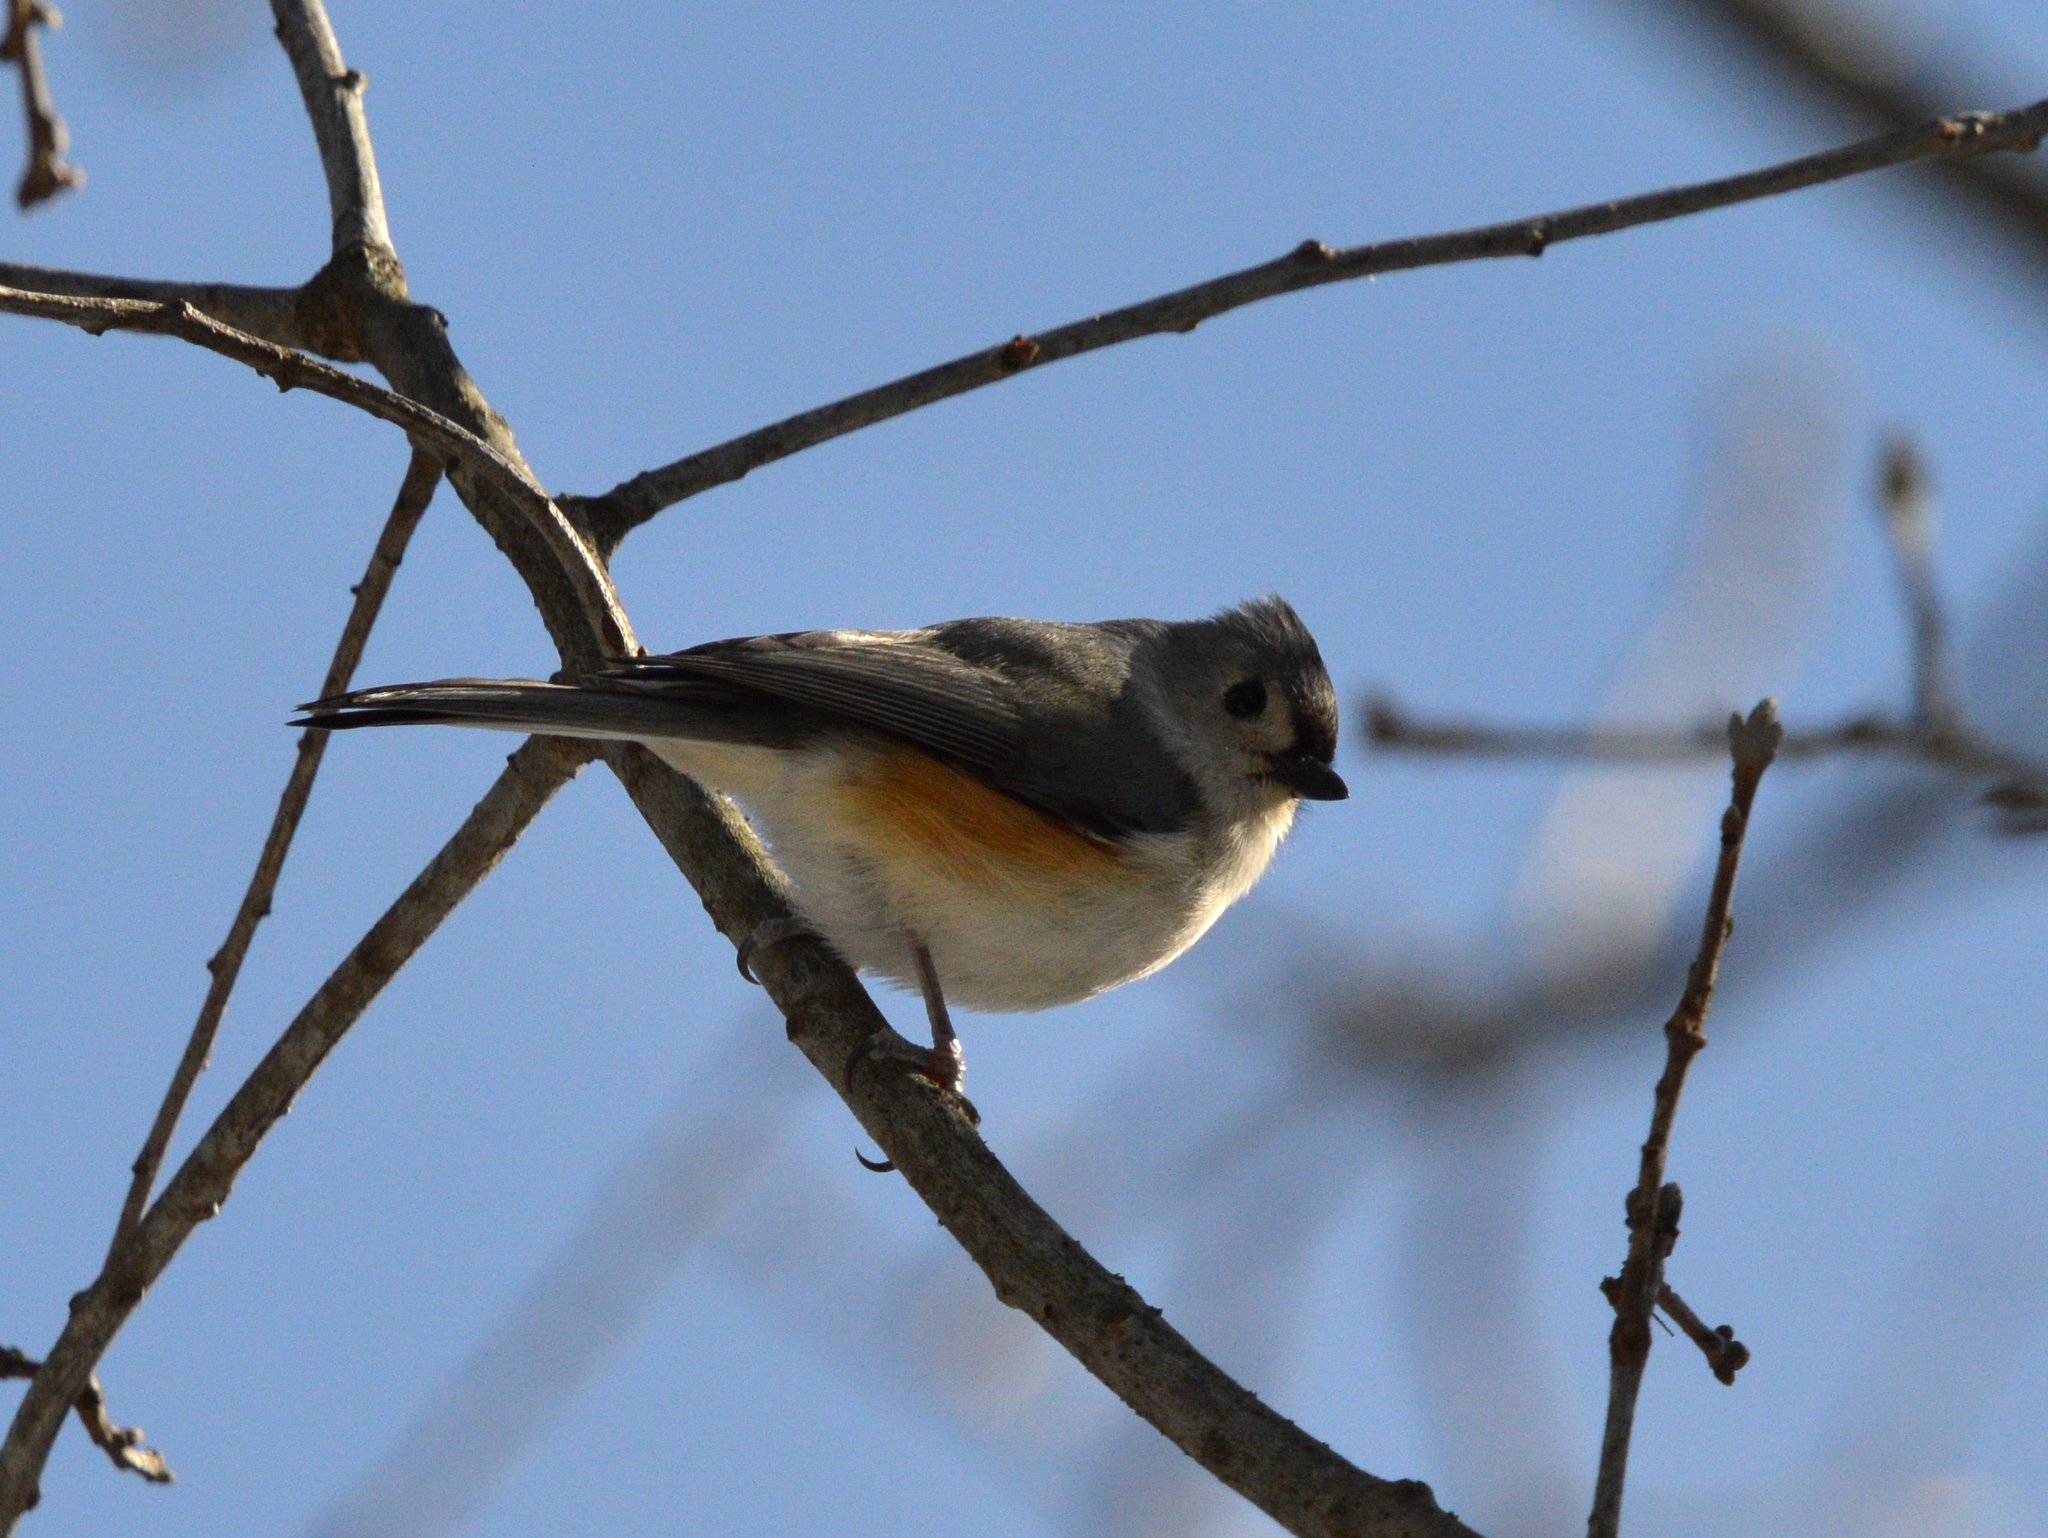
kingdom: Animalia
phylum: Chordata
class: Aves
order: Passeriformes
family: Paridae
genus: Baeolophus
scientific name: Baeolophus bicolor
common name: Tufted titmouse
